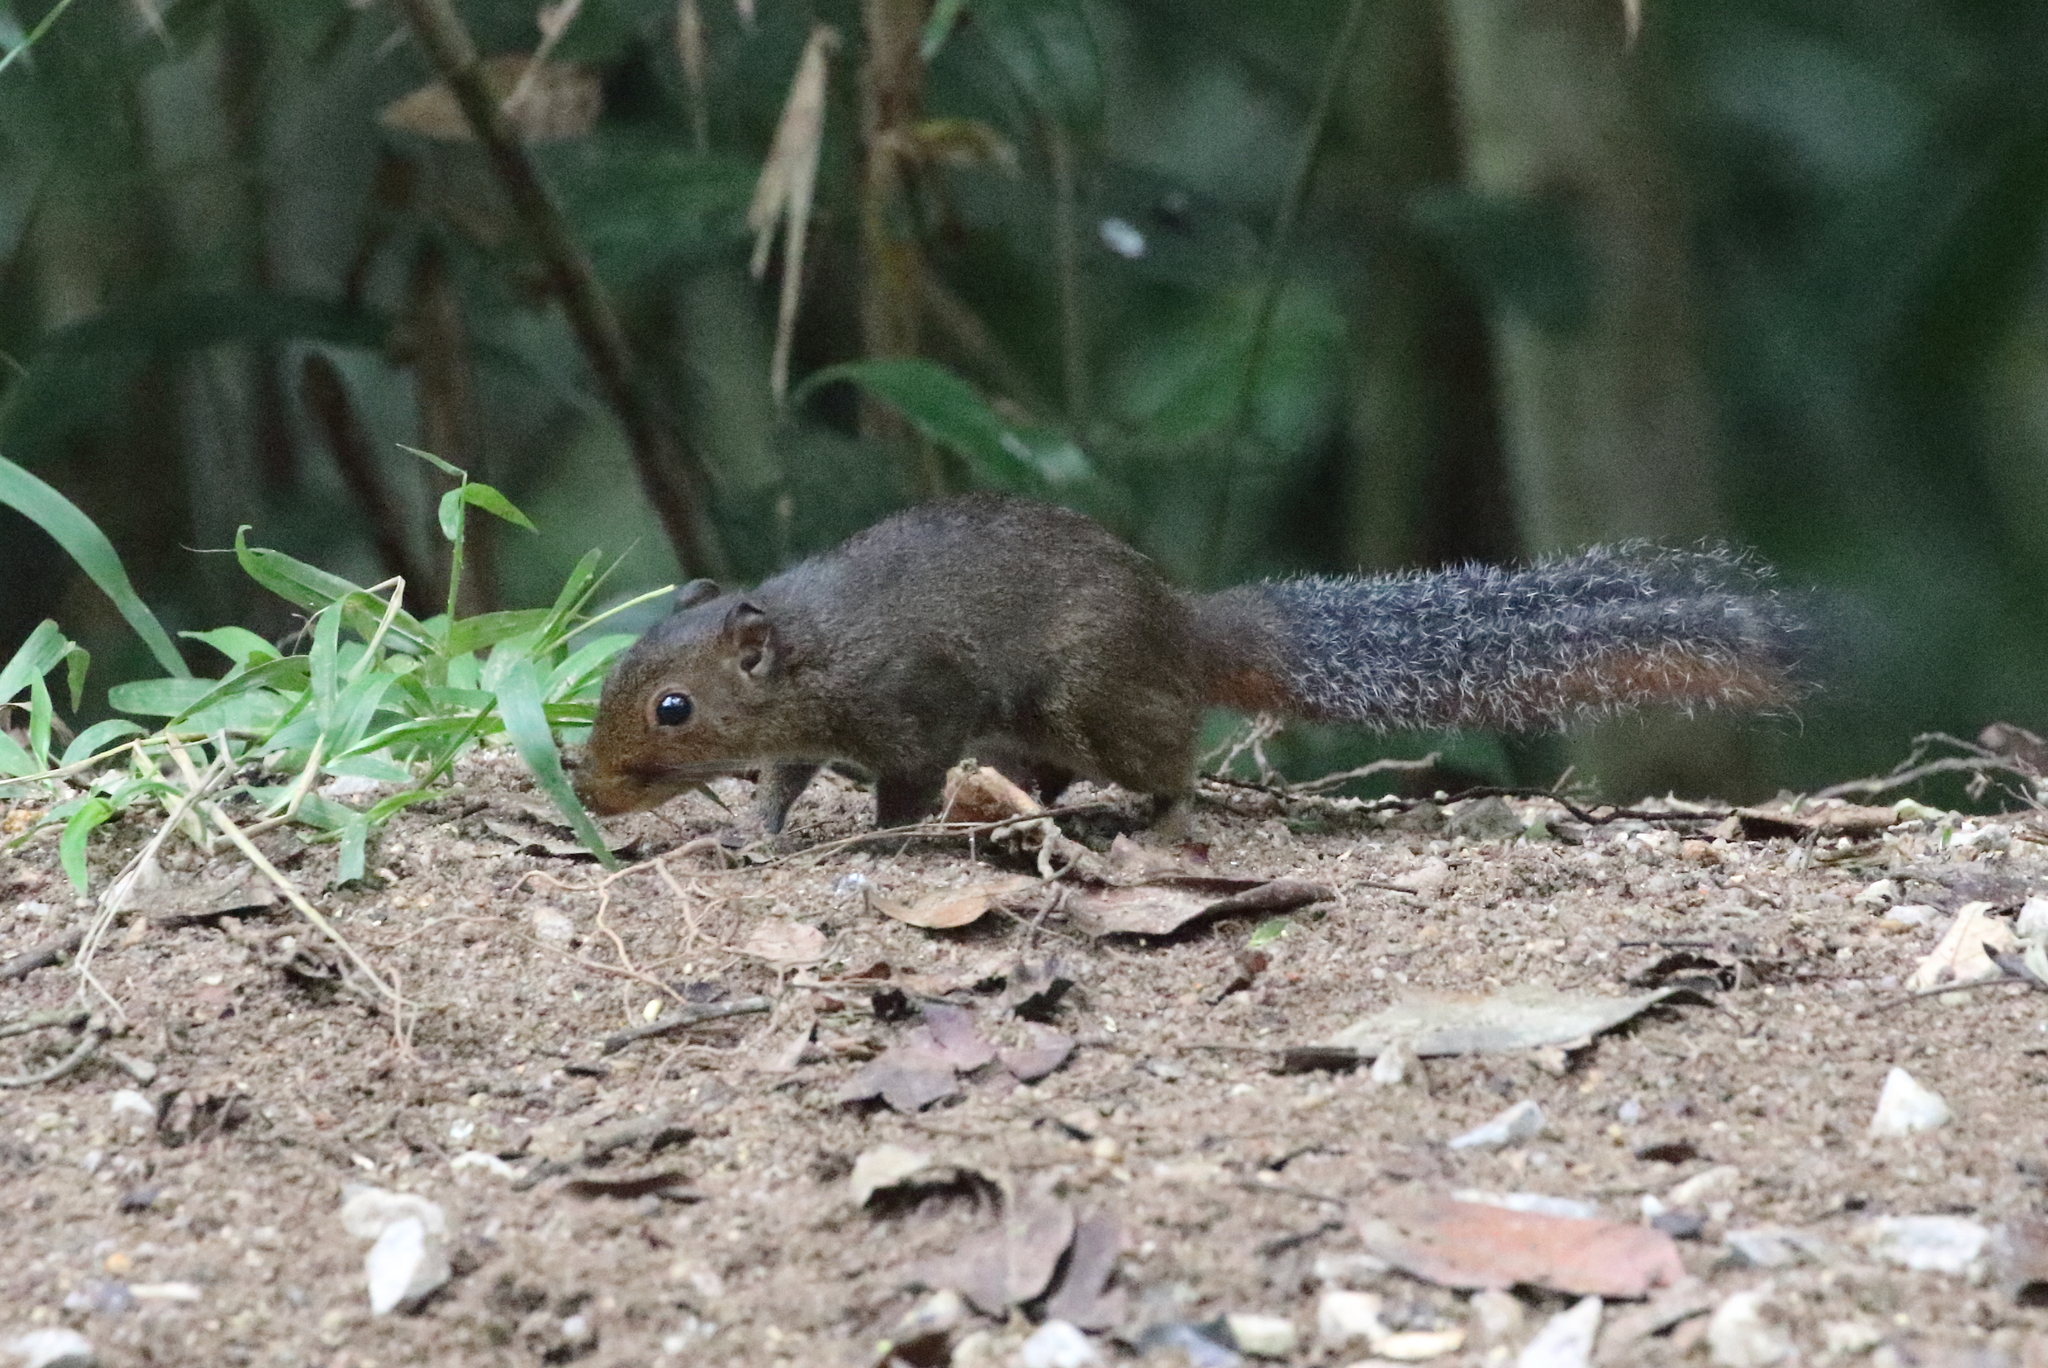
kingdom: Animalia
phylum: Chordata
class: Mammalia
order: Rodentia
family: Sciuridae
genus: Dremomys
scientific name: Dremomys rufigenis
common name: Asian red-cheeked squirrel
